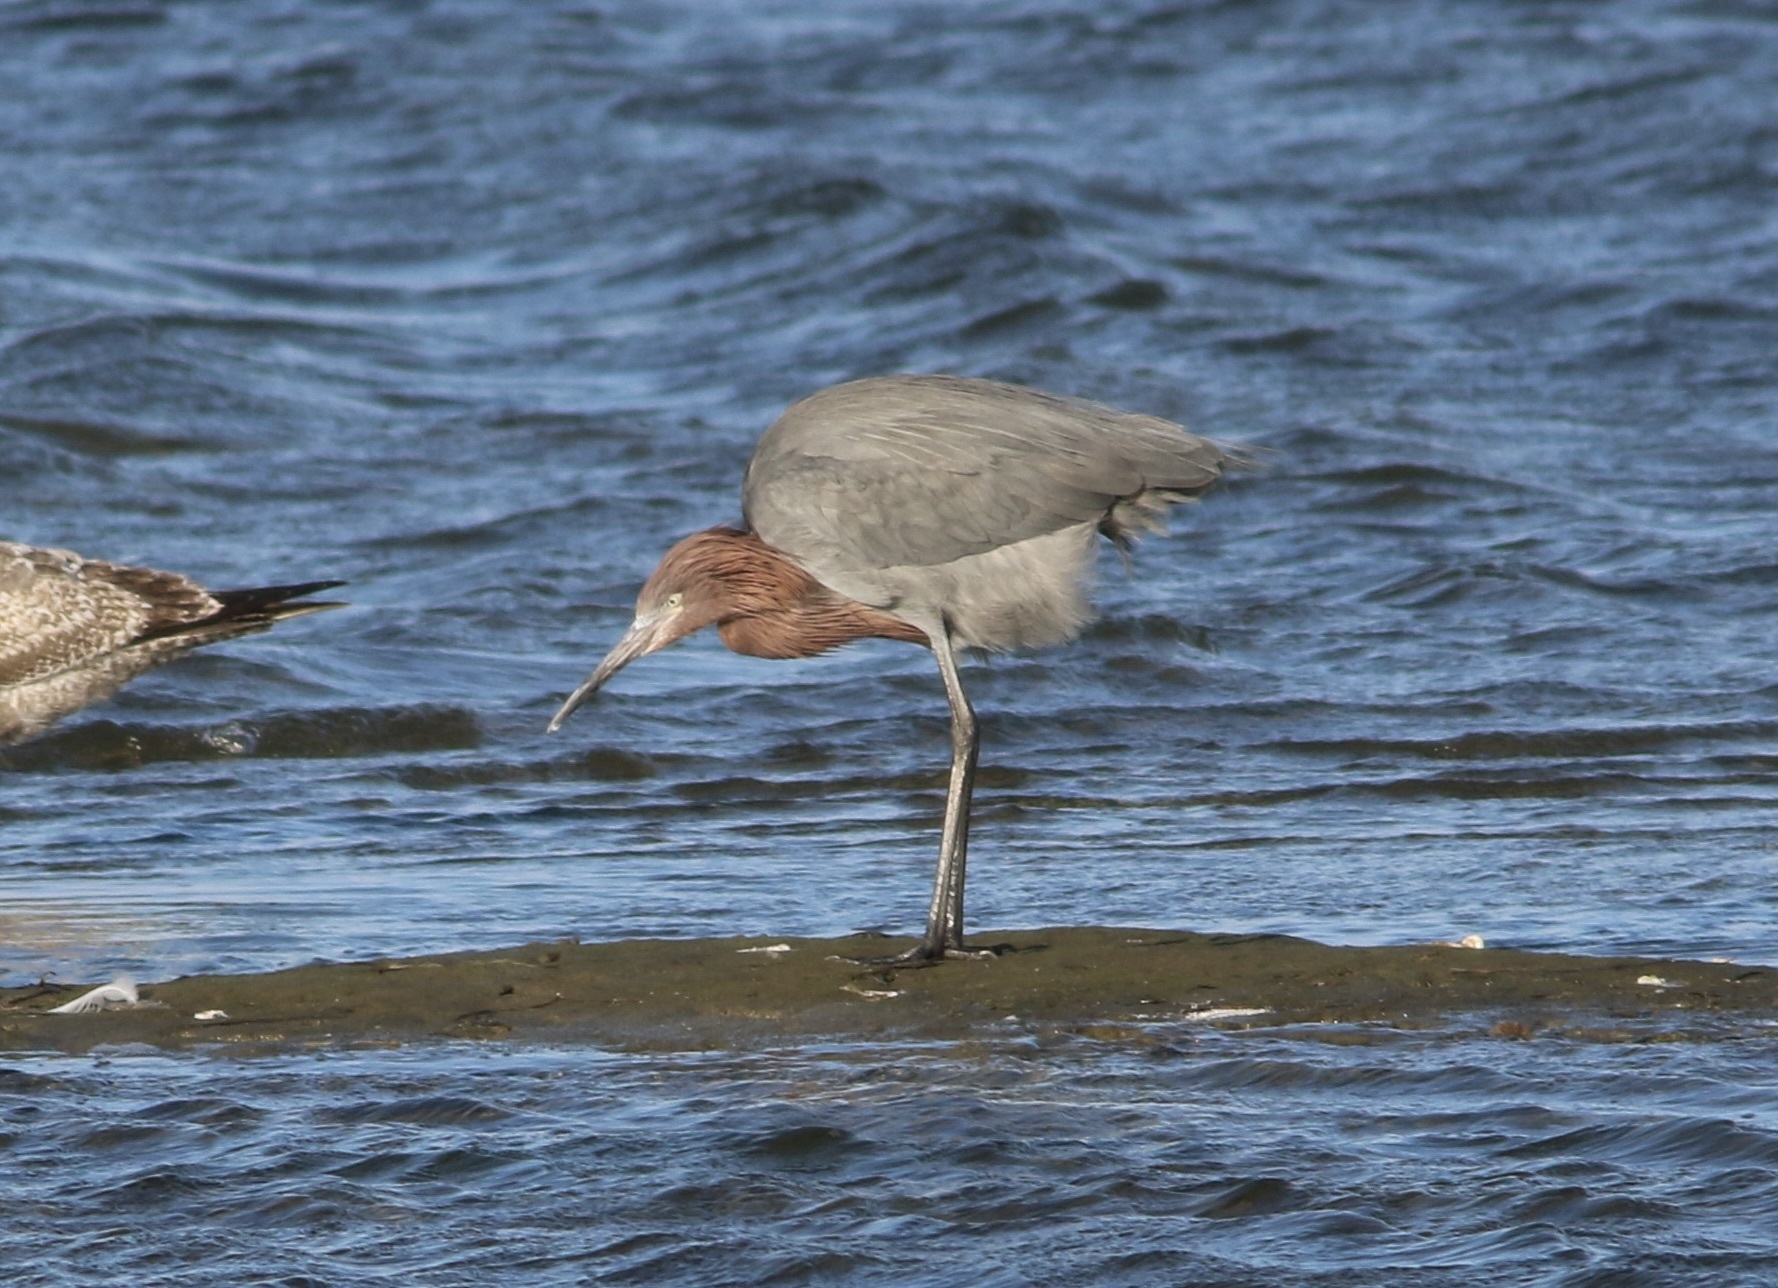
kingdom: Animalia
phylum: Chordata
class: Aves
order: Pelecaniformes
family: Ardeidae
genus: Egretta
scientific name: Egretta rufescens
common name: Reddish egret
